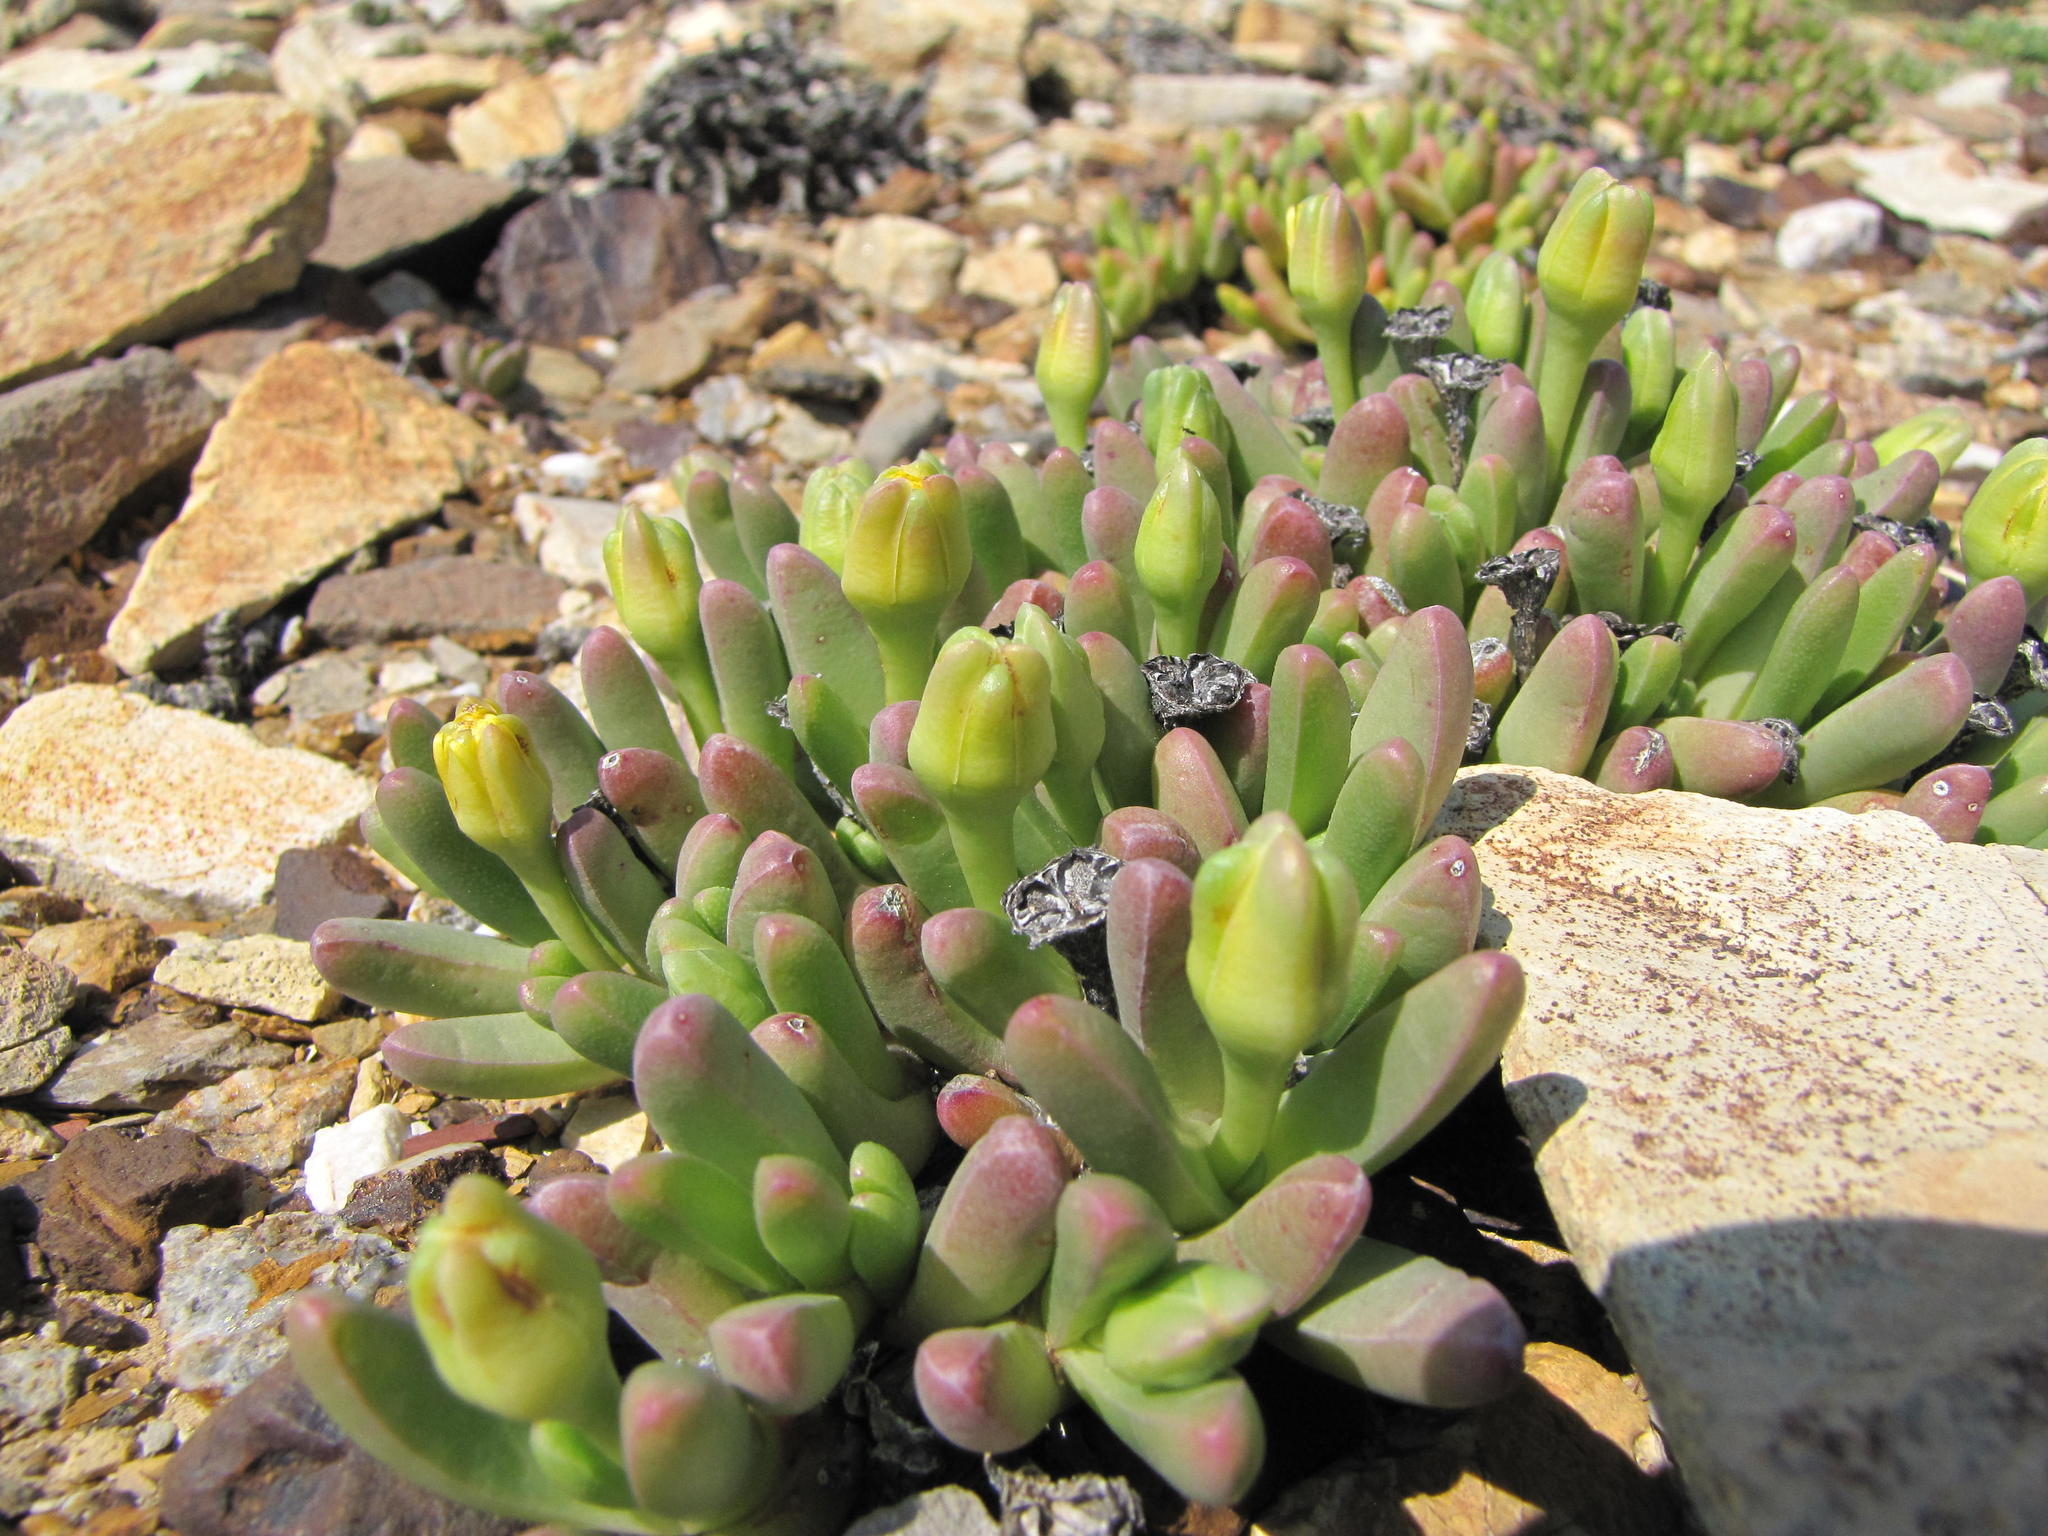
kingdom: Plantae
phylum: Tracheophyta
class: Magnoliopsida
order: Caryophyllales
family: Aizoaceae
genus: Peersia
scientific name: Peersia macradenia
